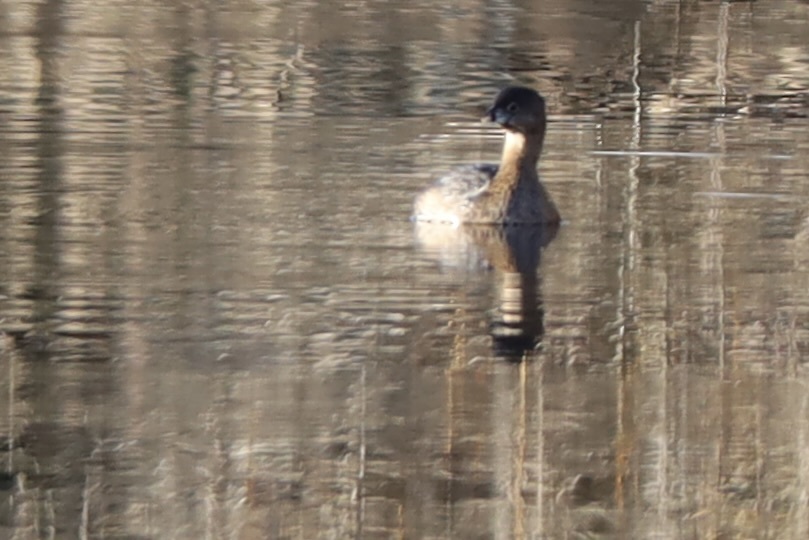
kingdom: Animalia
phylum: Chordata
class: Aves
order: Podicipediformes
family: Podicipedidae
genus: Podilymbus
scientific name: Podilymbus podiceps
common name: Pied-billed grebe
